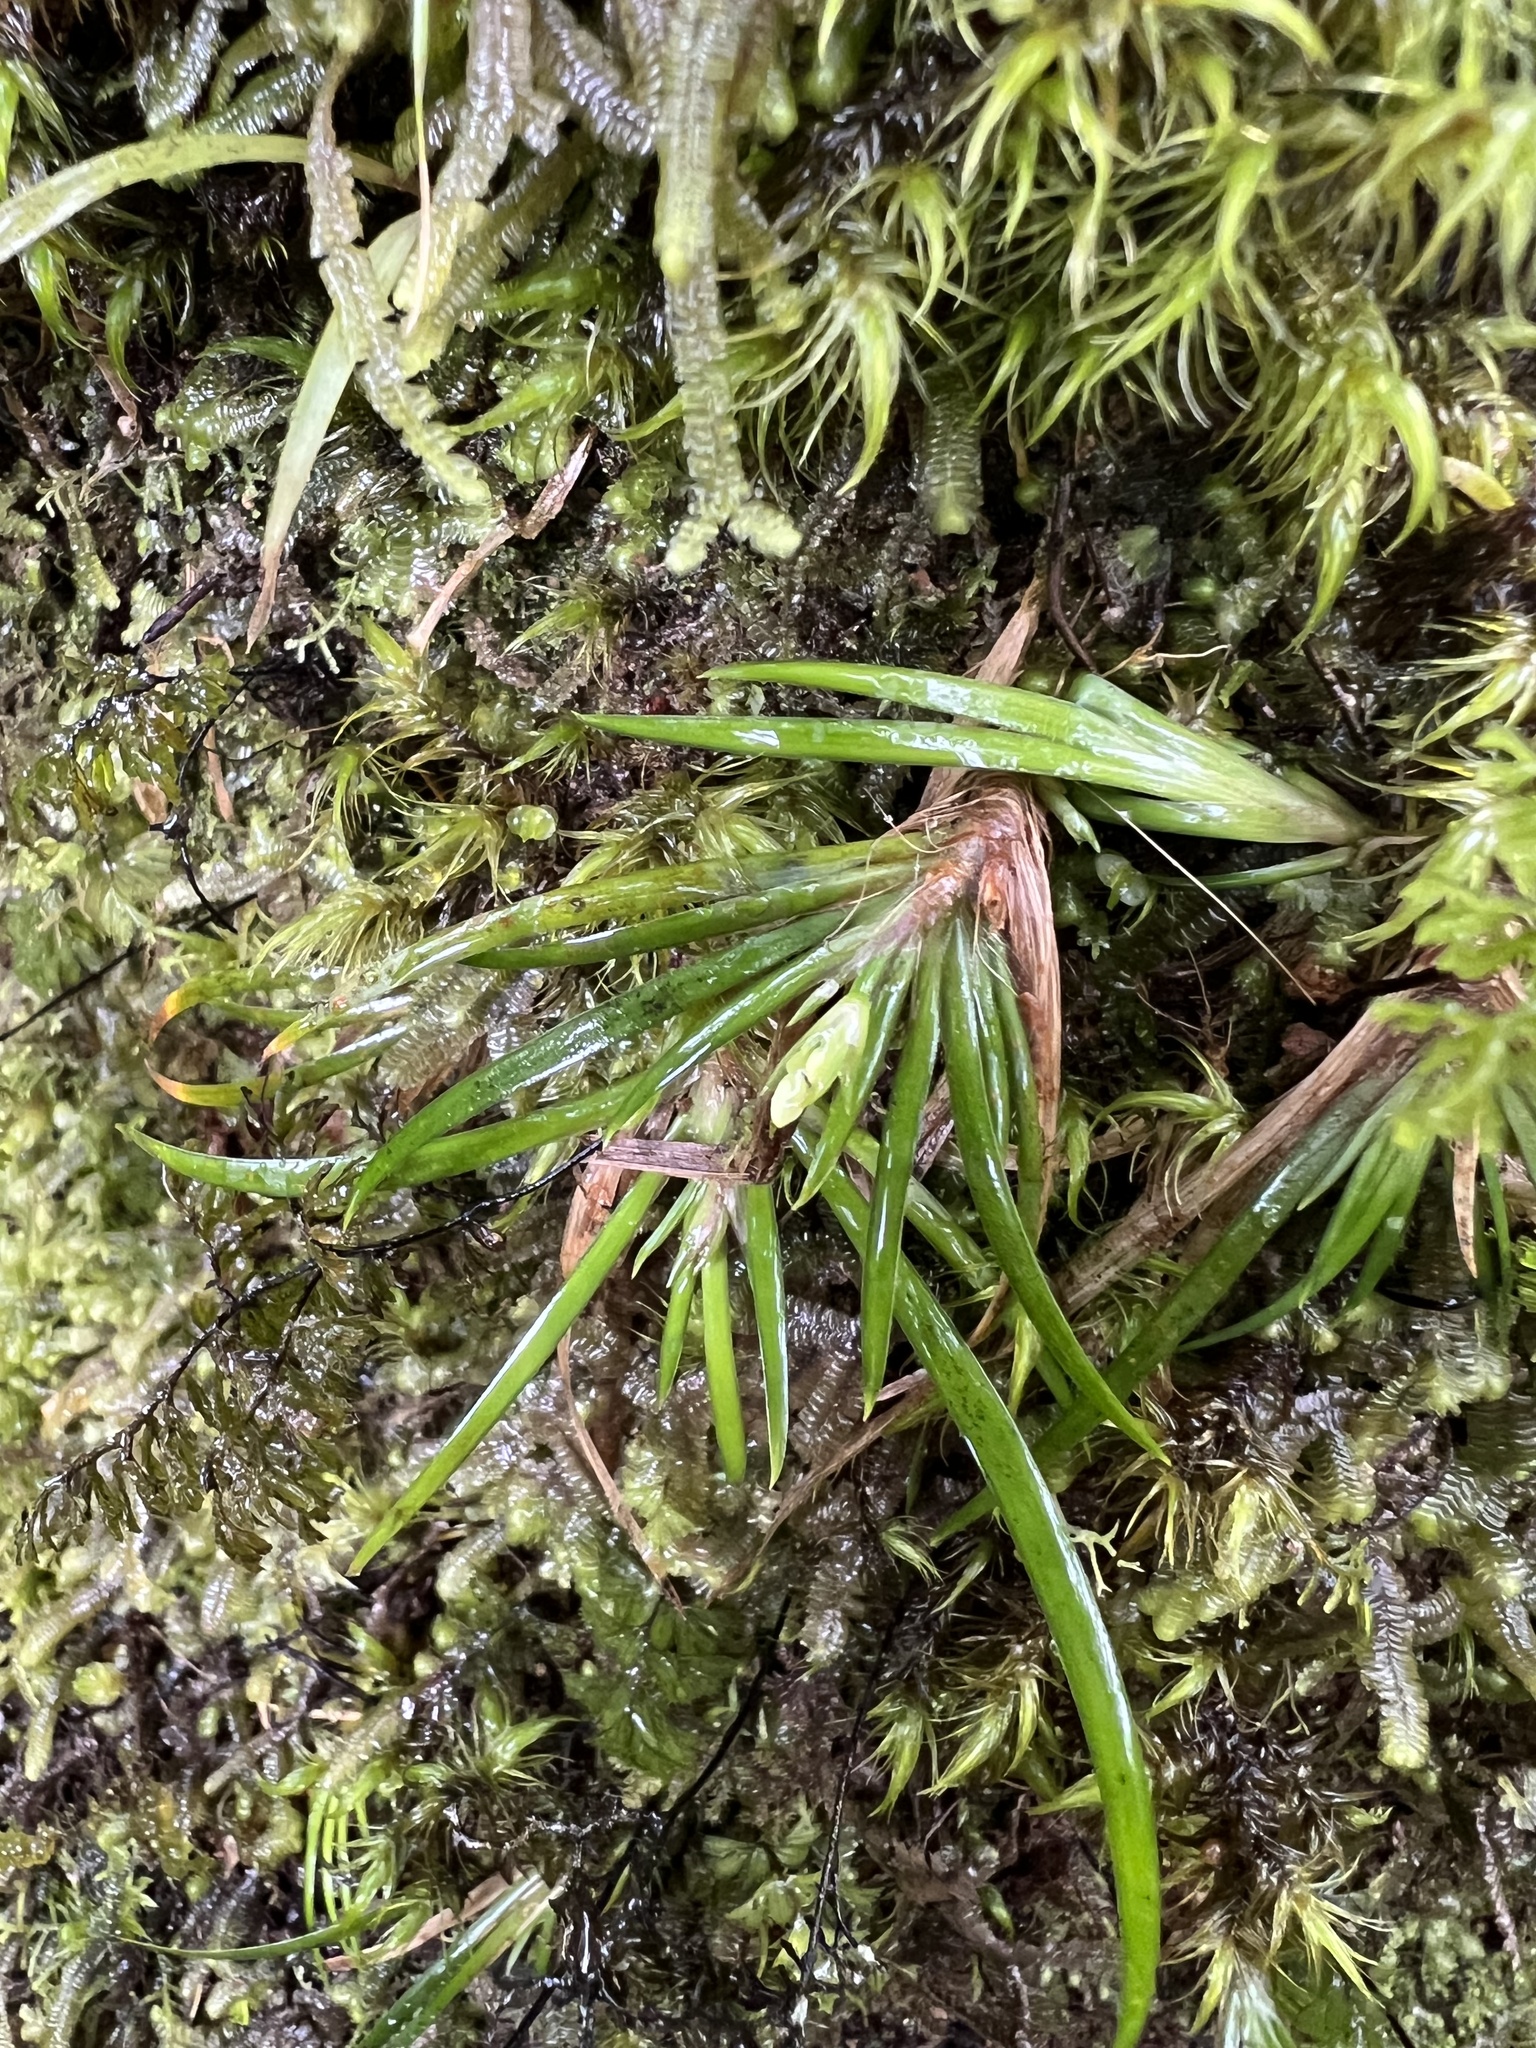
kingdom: Plantae
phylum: Tracheophyta
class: Liliopsida
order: Asparagales
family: Iridaceae
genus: Libertia
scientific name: Libertia micrantha
